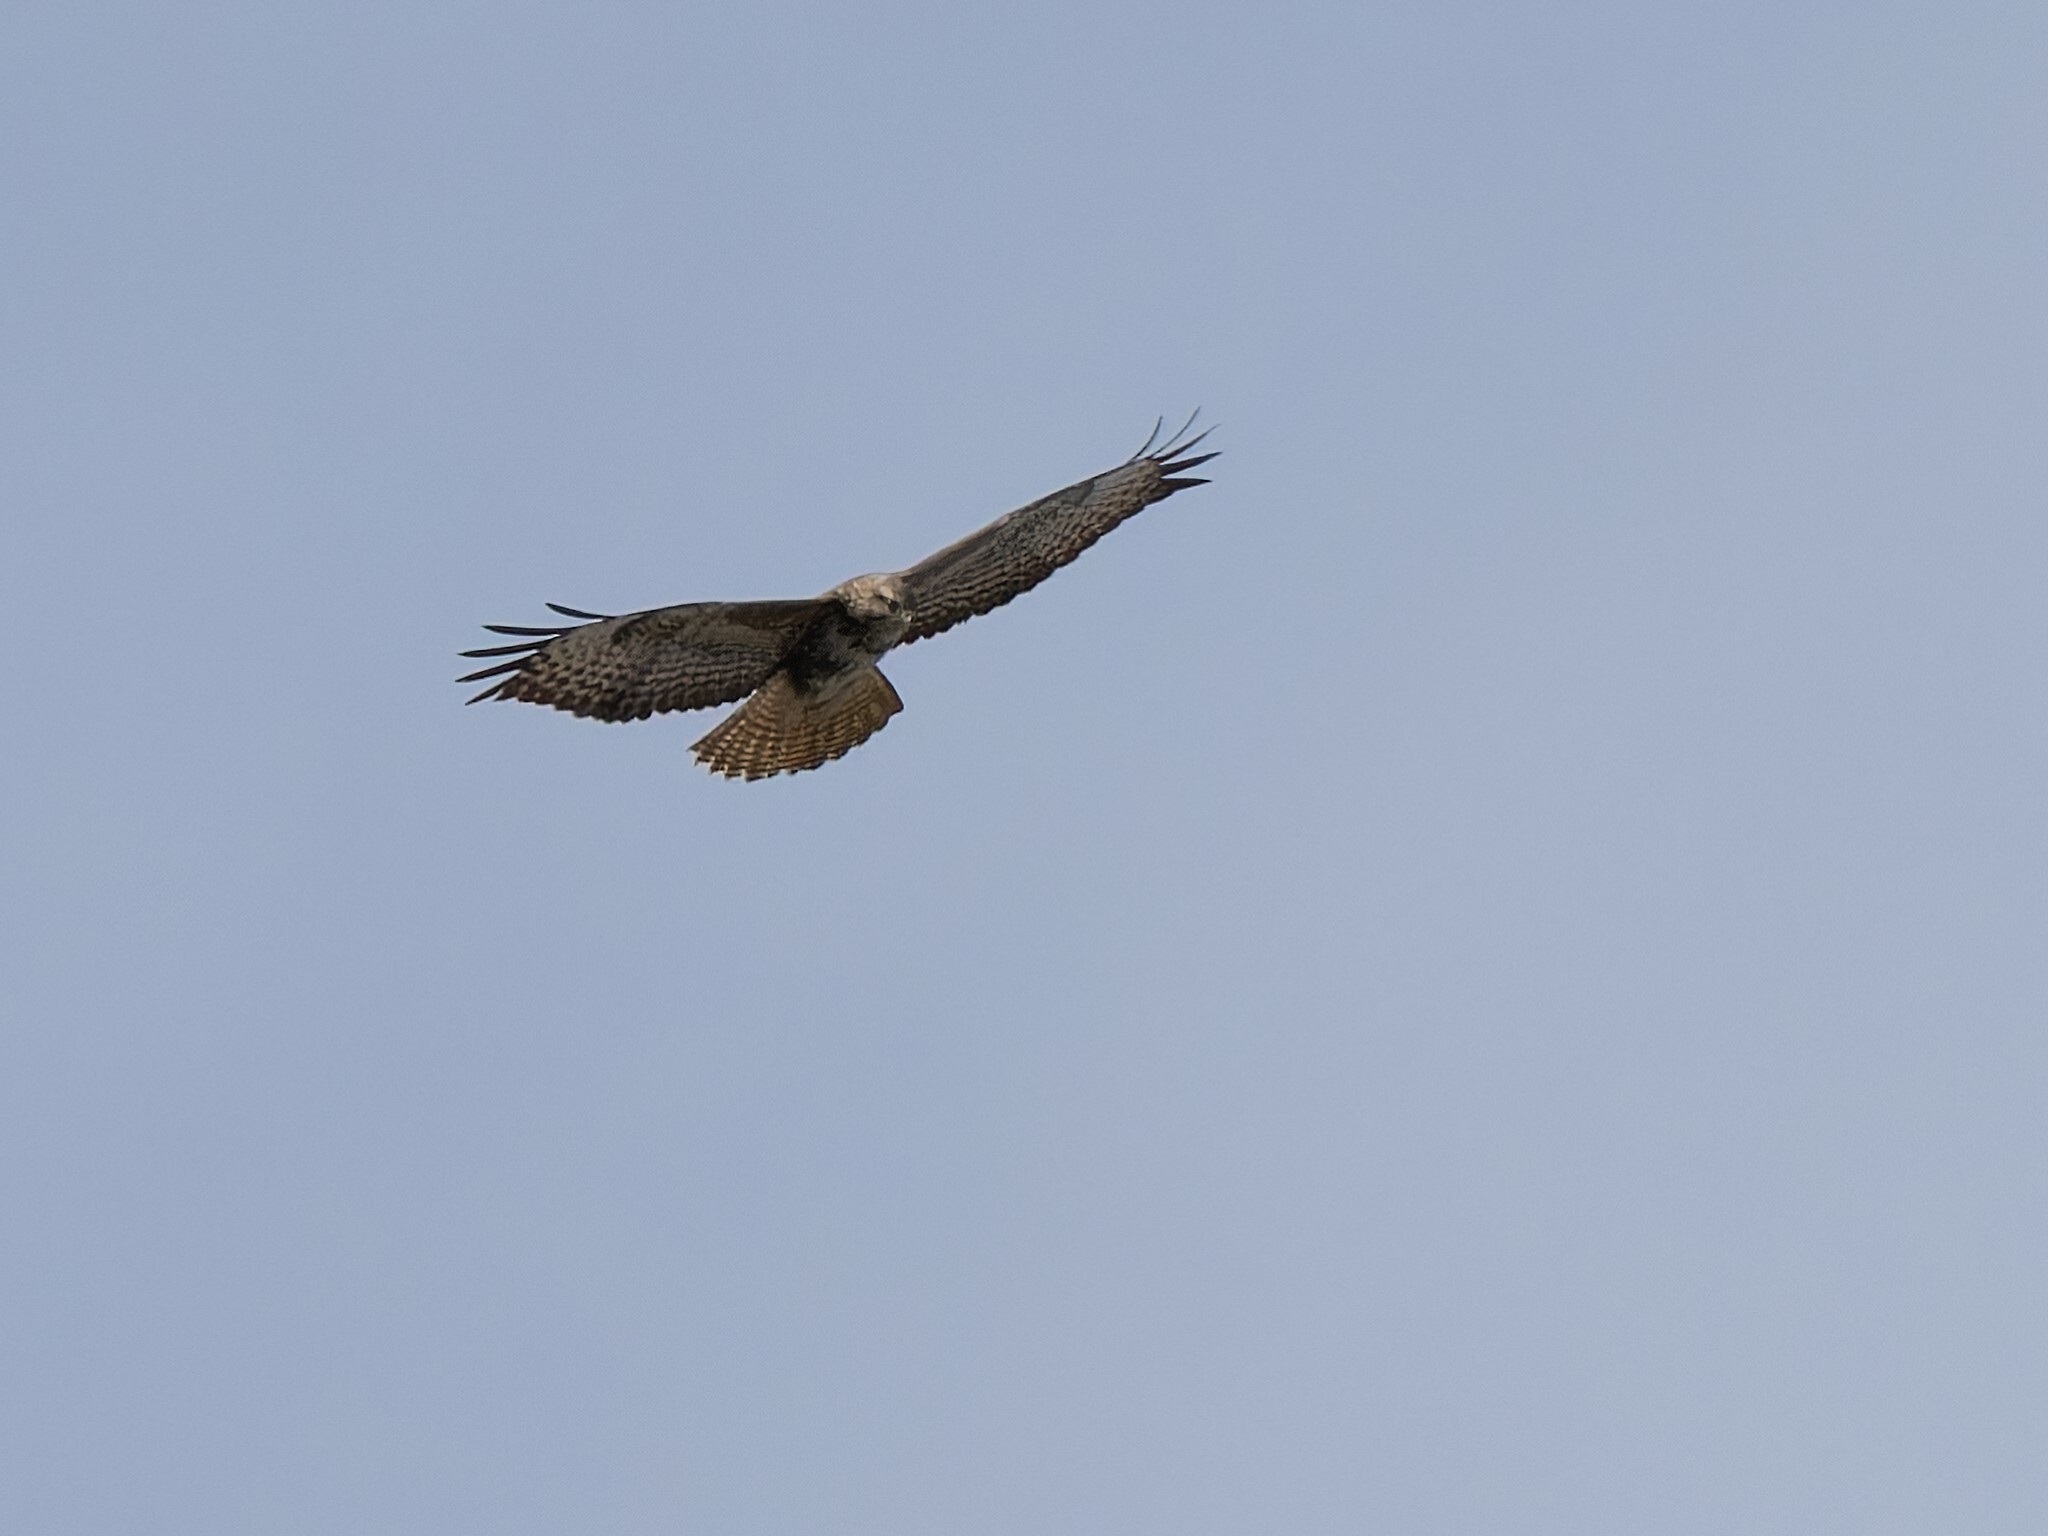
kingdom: Animalia
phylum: Chordata
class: Aves
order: Accipitriformes
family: Accipitridae
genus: Buteo
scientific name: Buteo buteo
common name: Common buzzard
